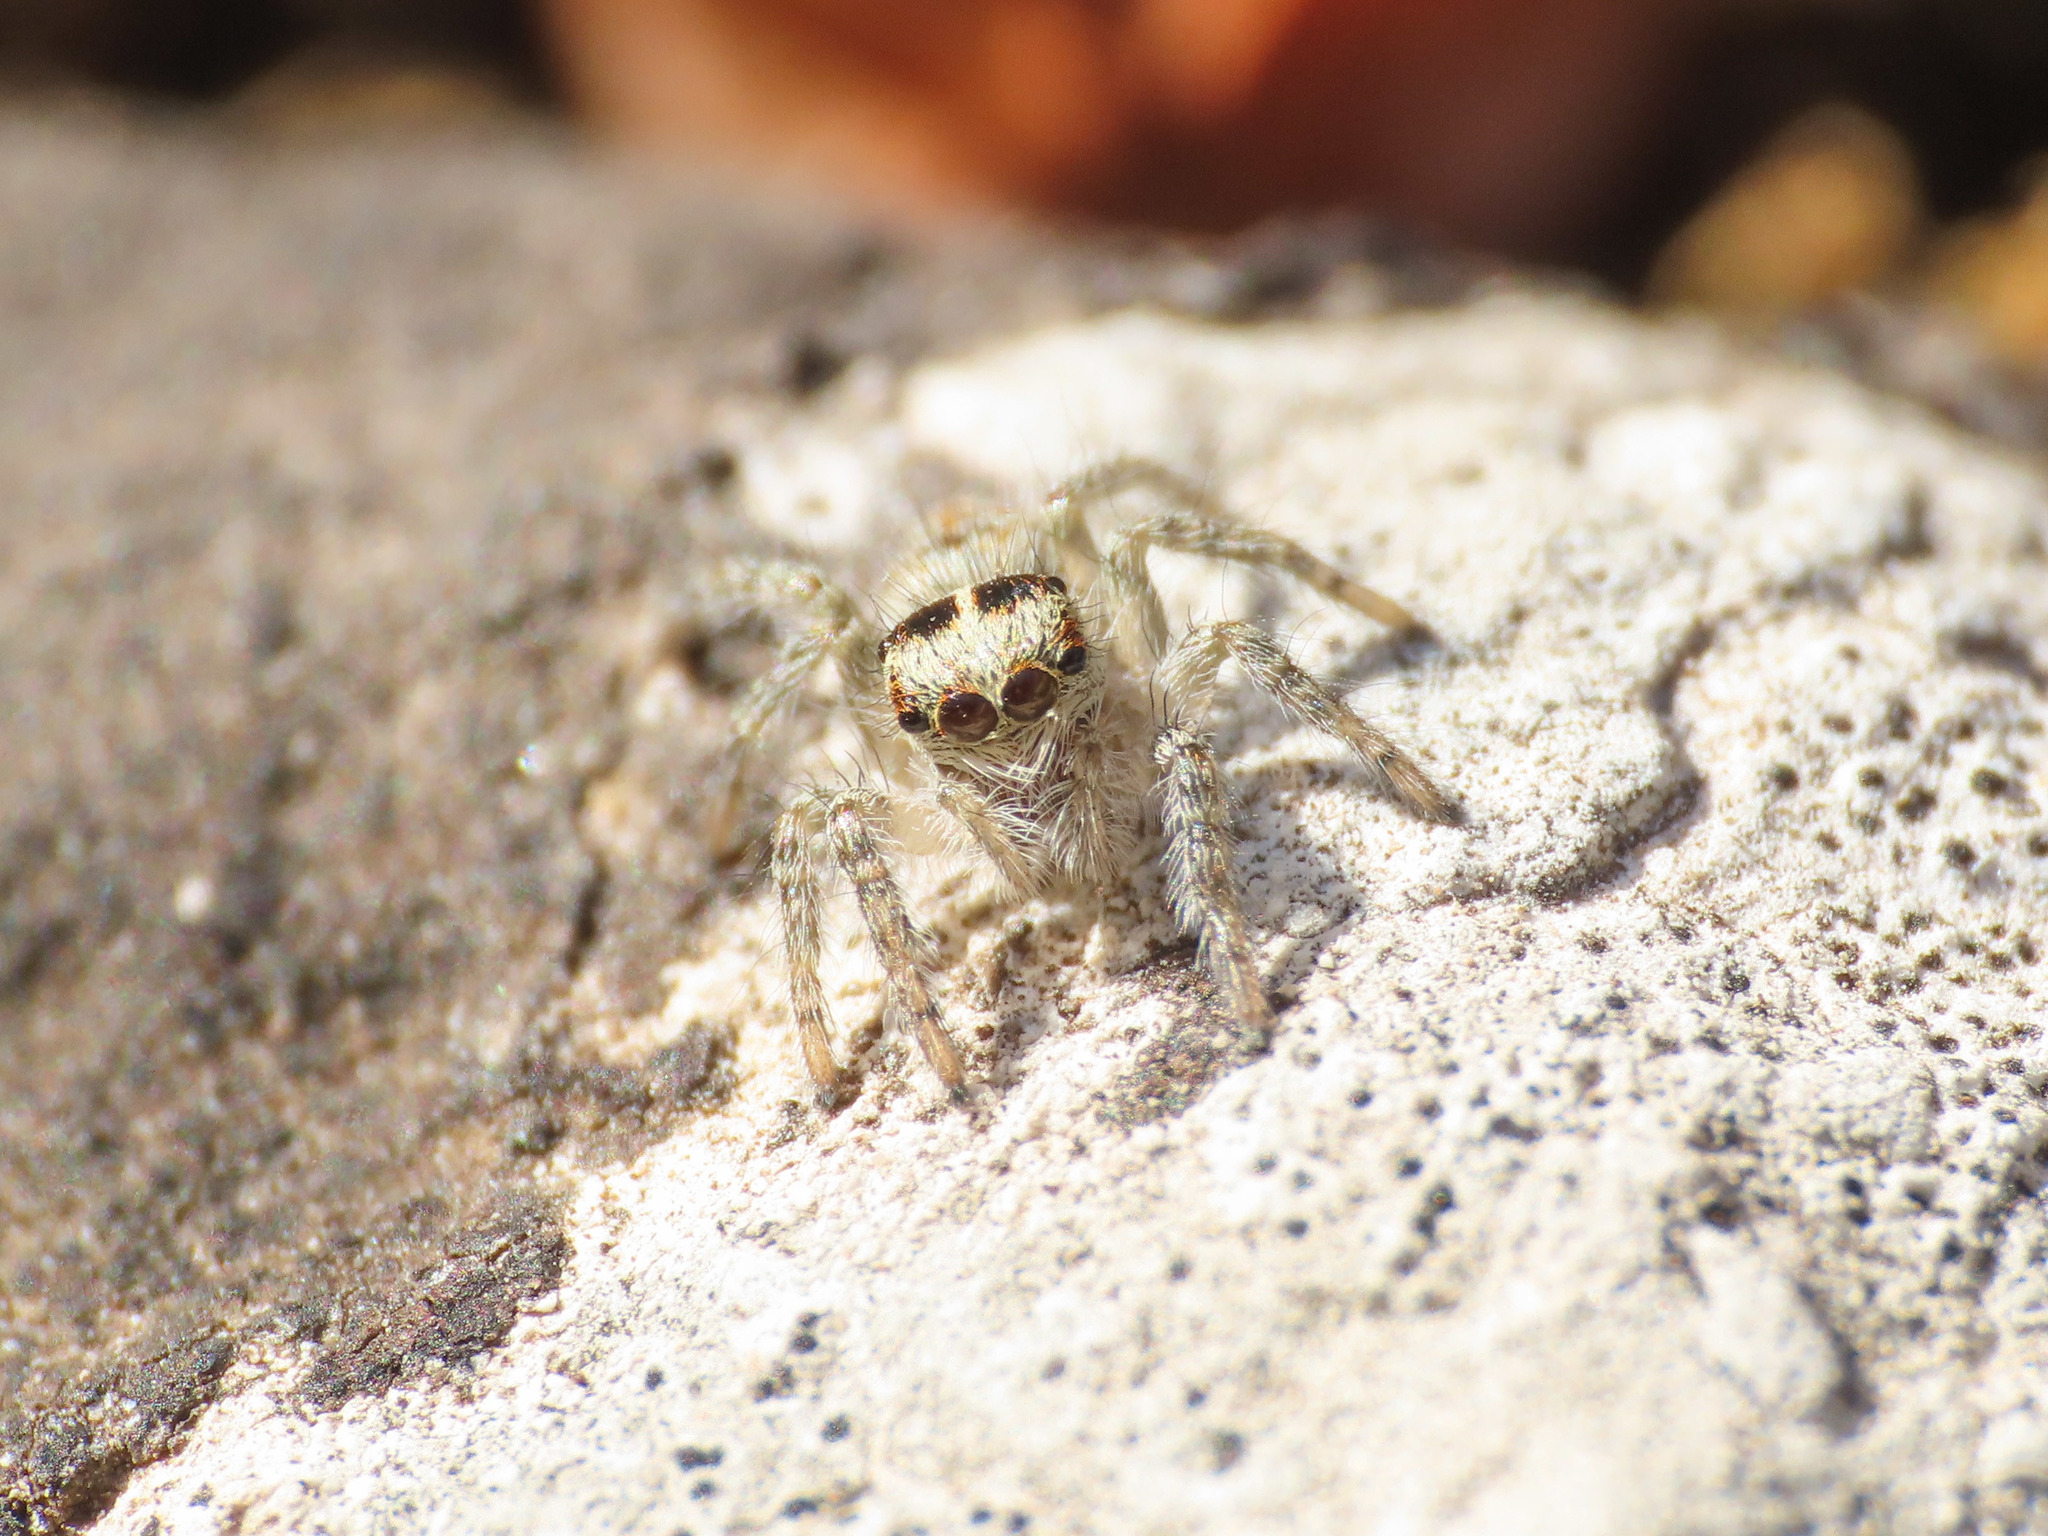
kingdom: Animalia
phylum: Arthropoda
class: Arachnida
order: Araneae
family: Salticidae
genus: Philaeus
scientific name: Philaeus chrysops
